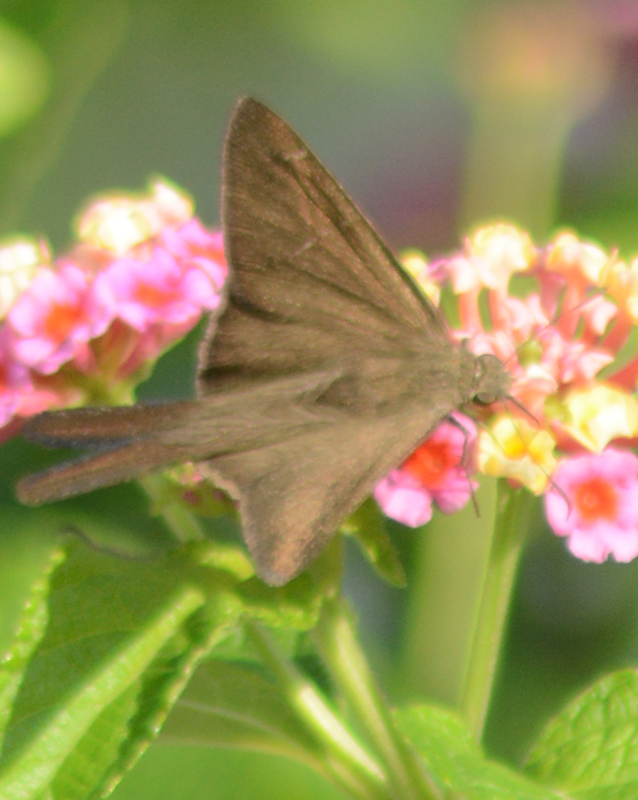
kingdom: Animalia
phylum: Arthropoda
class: Insecta
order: Lepidoptera
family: Hesperiidae
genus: Urbanus
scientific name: Urbanus procne
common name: Brown longtail
